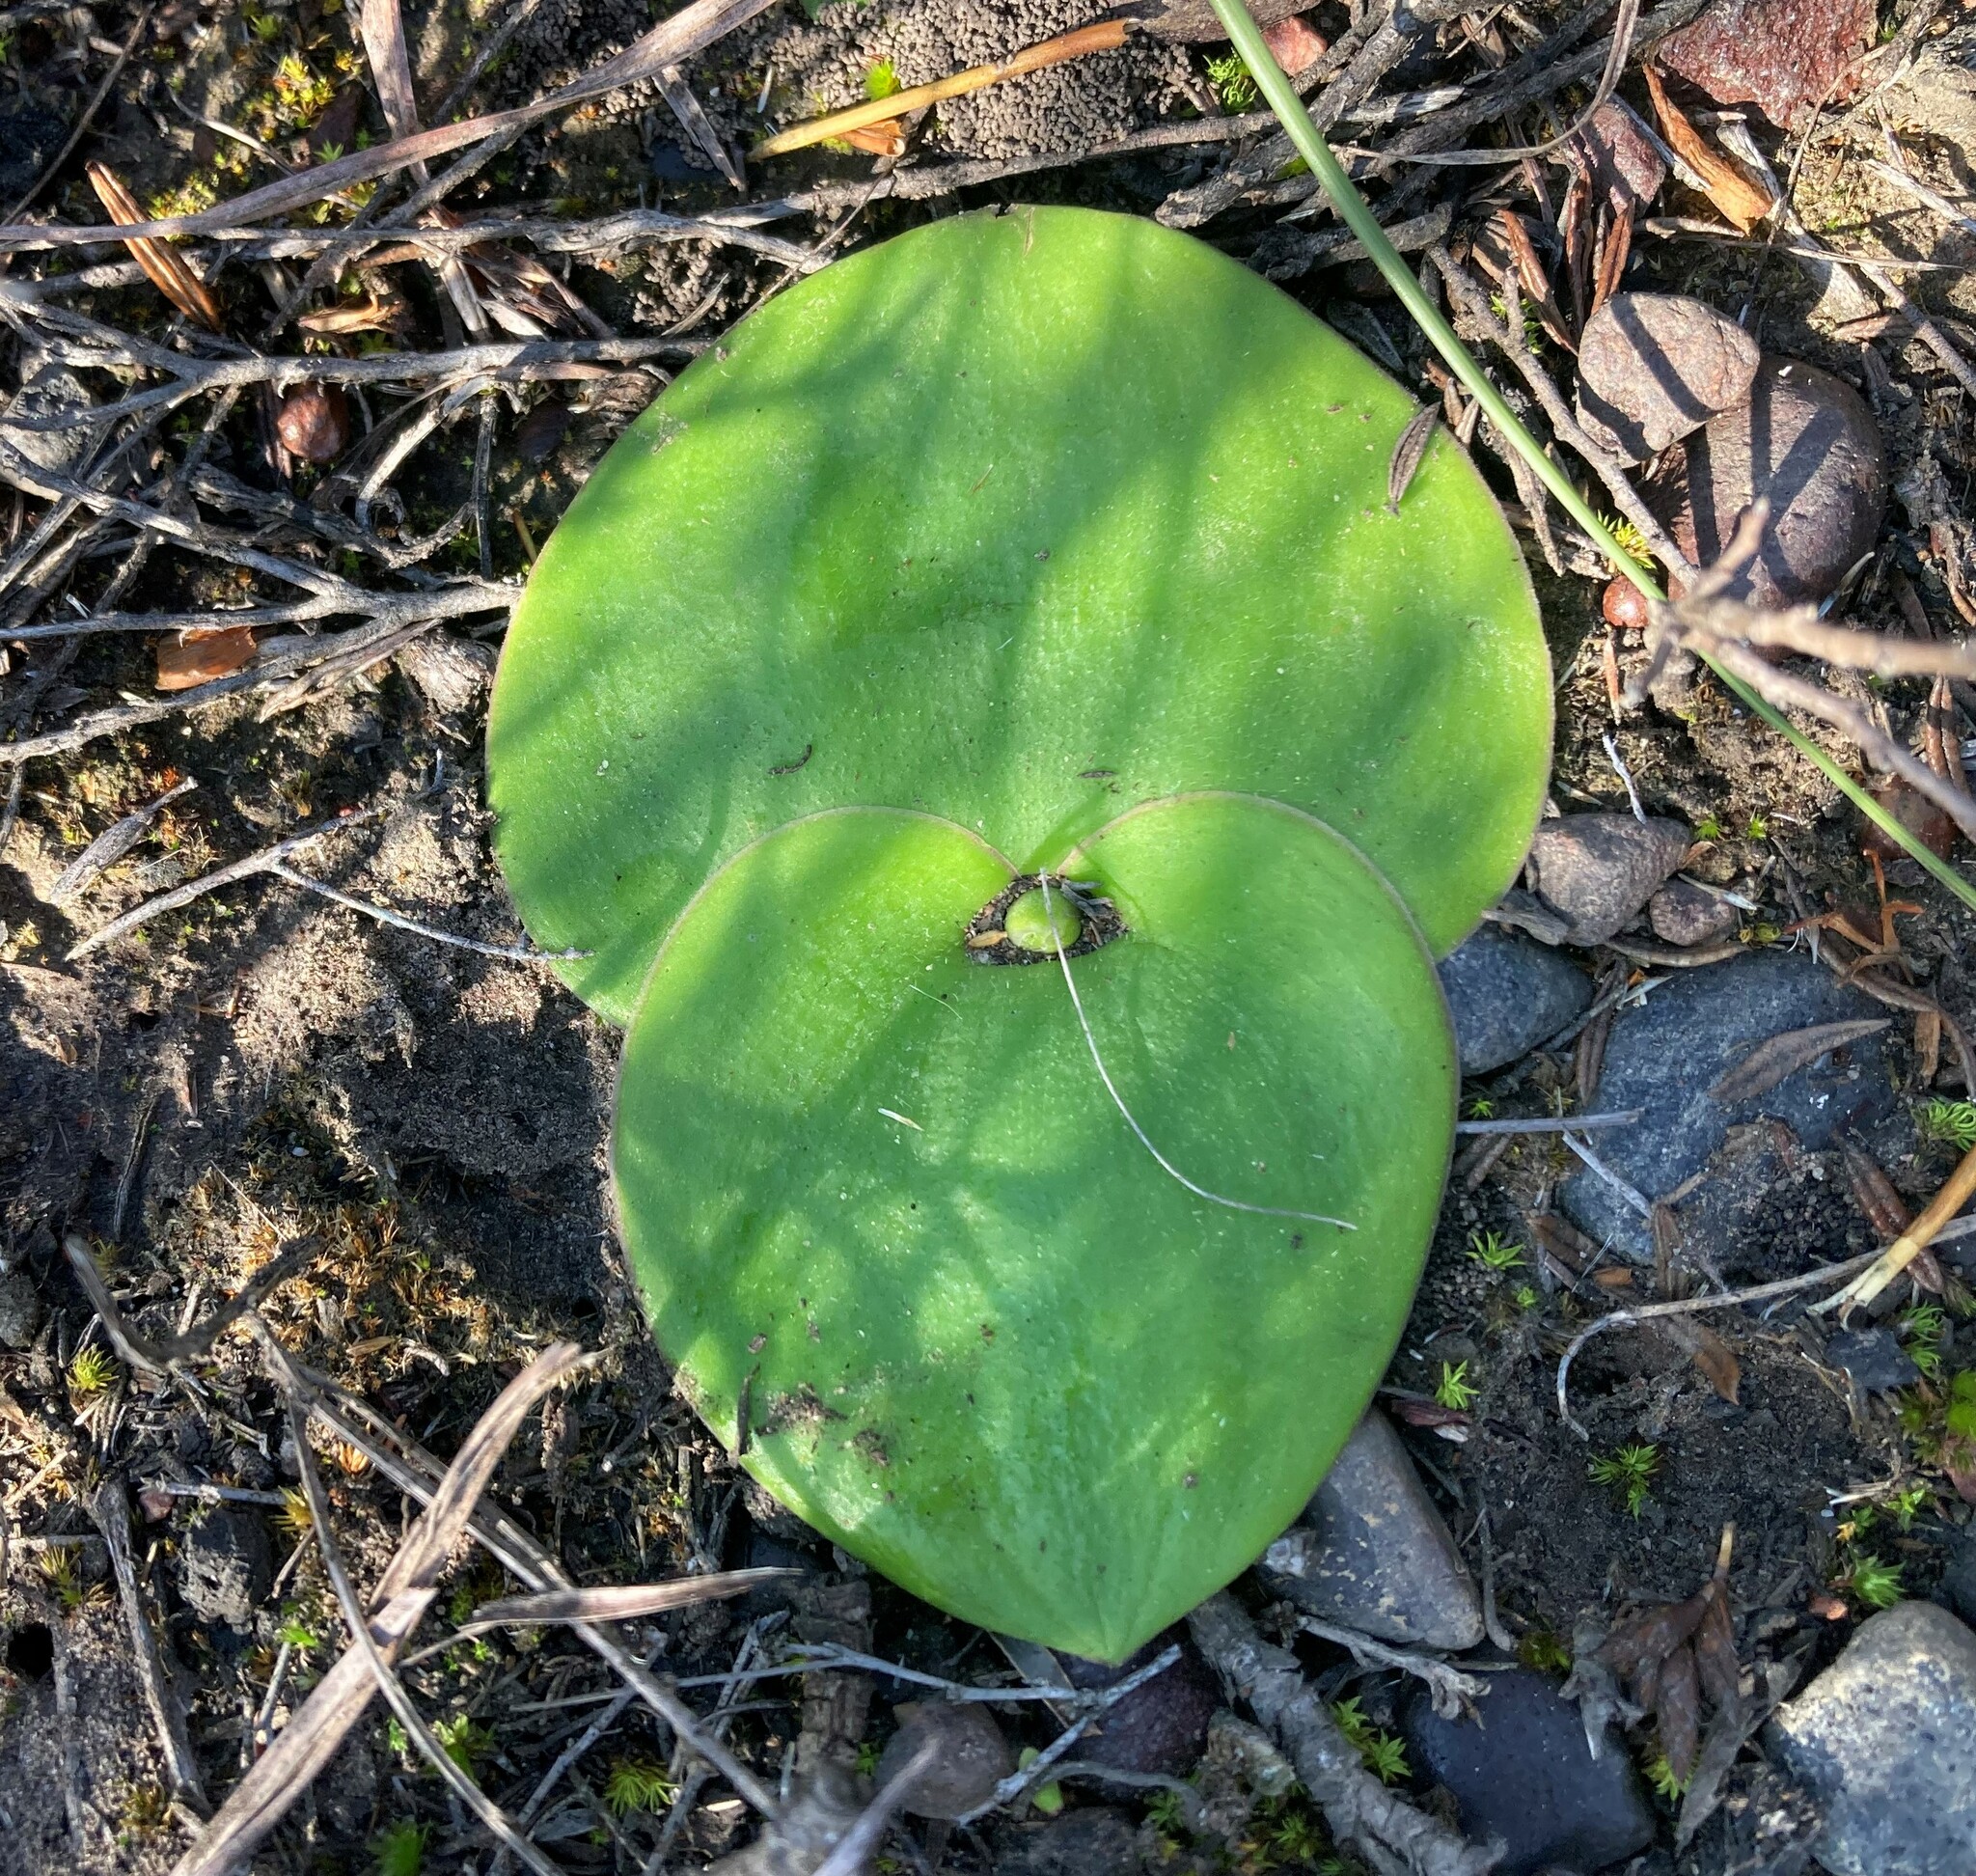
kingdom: Plantae
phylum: Tracheophyta
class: Liliopsida
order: Asparagales
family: Orchidaceae
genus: Satyrium
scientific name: Satyrium erectum
